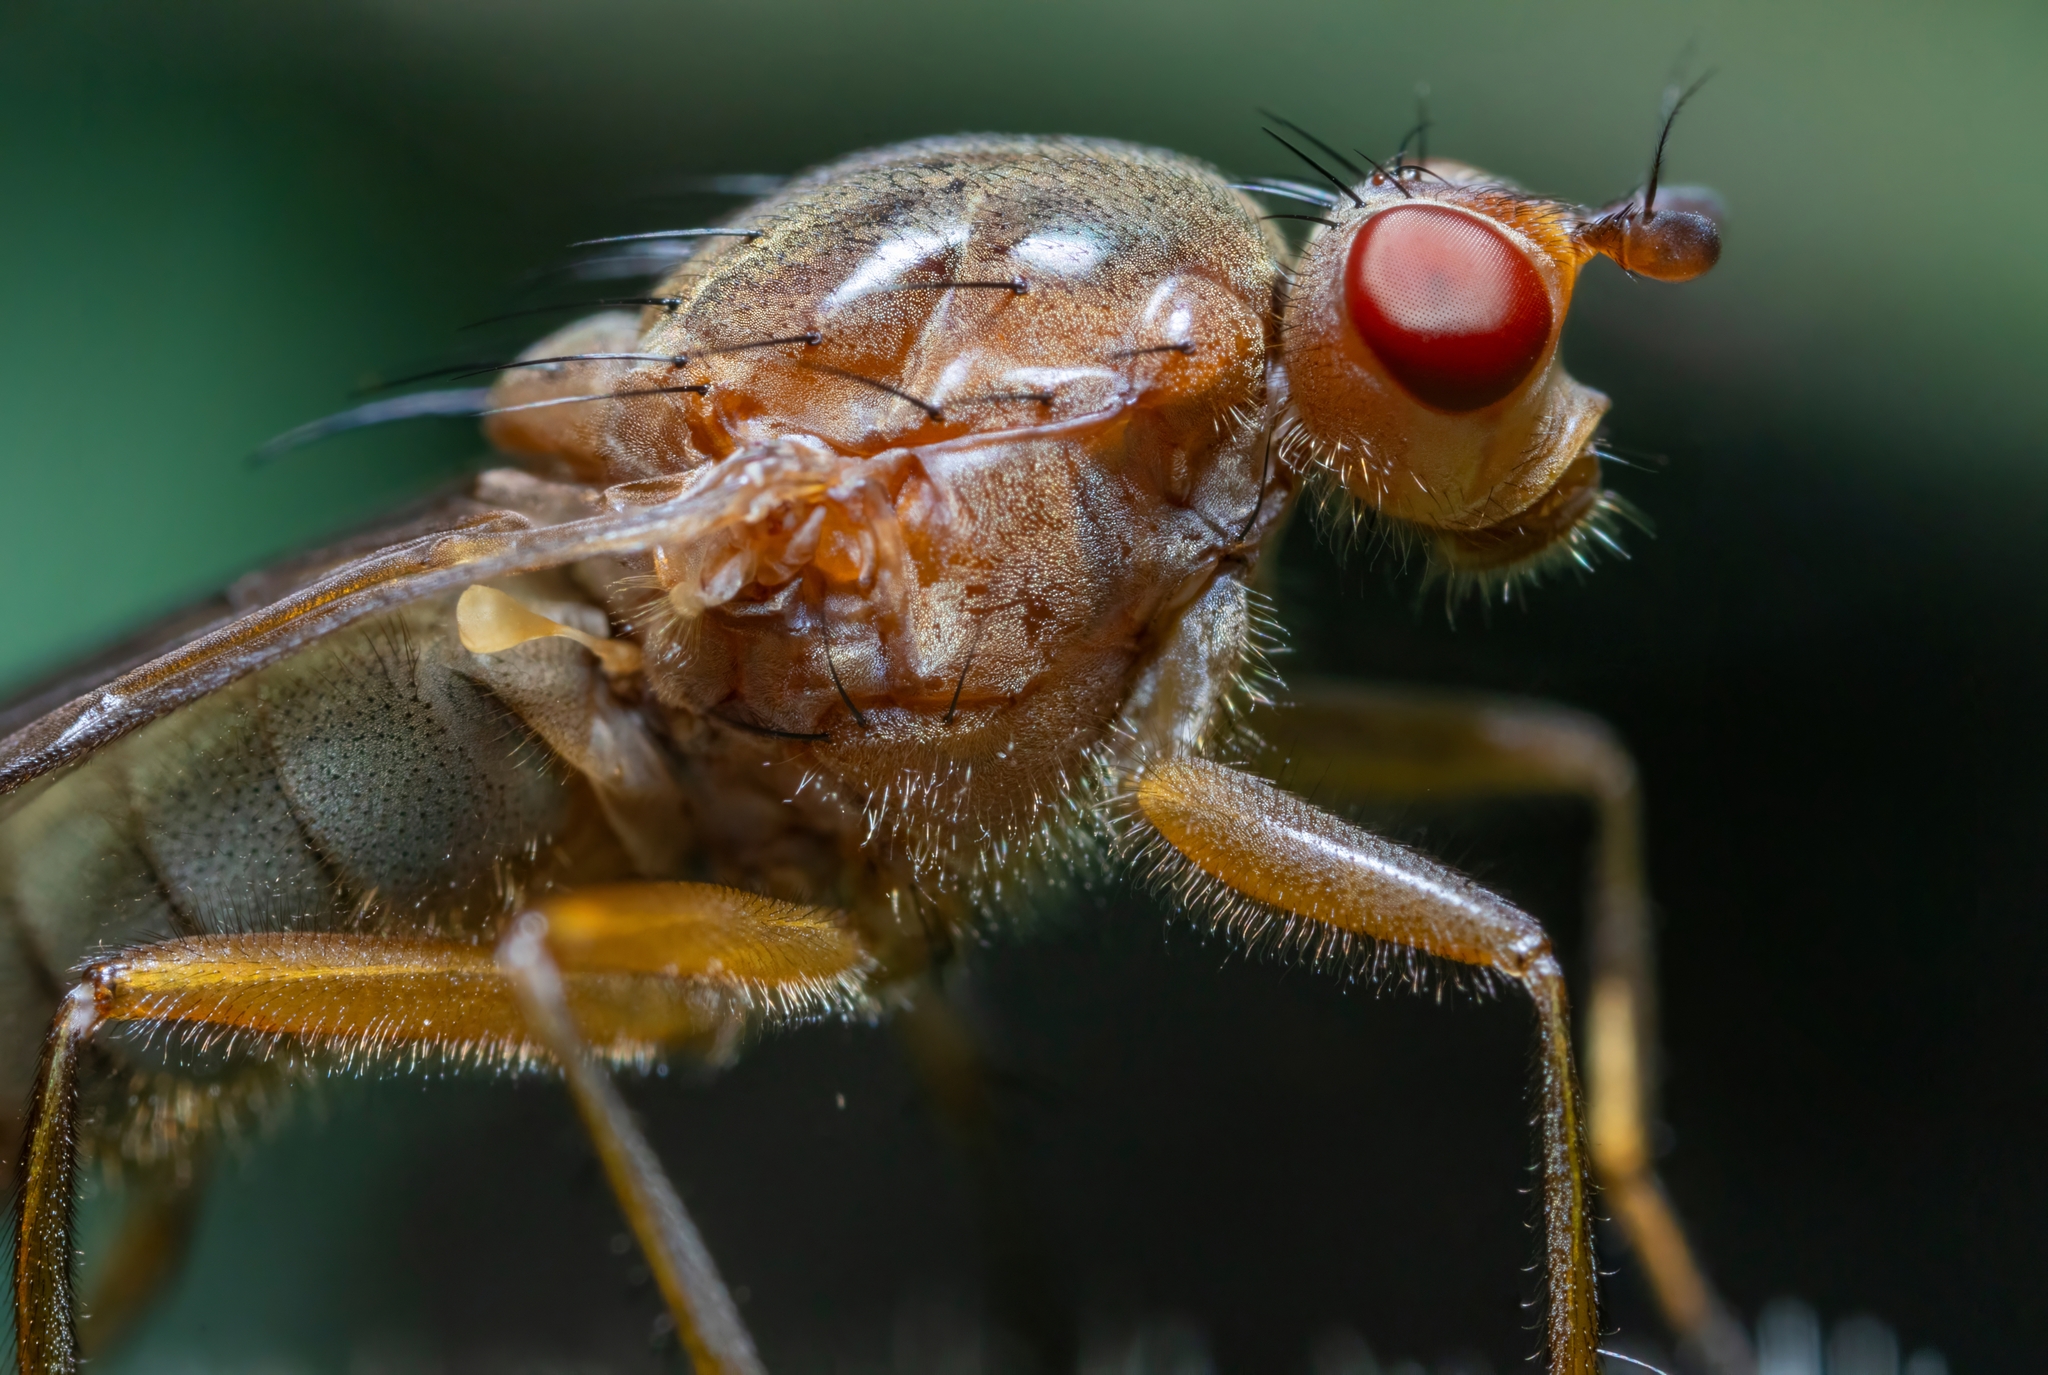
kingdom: Animalia
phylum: Arthropoda
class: Insecta
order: Diptera
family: Dryomyzidae
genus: Dryope
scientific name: Dryope flaveola
